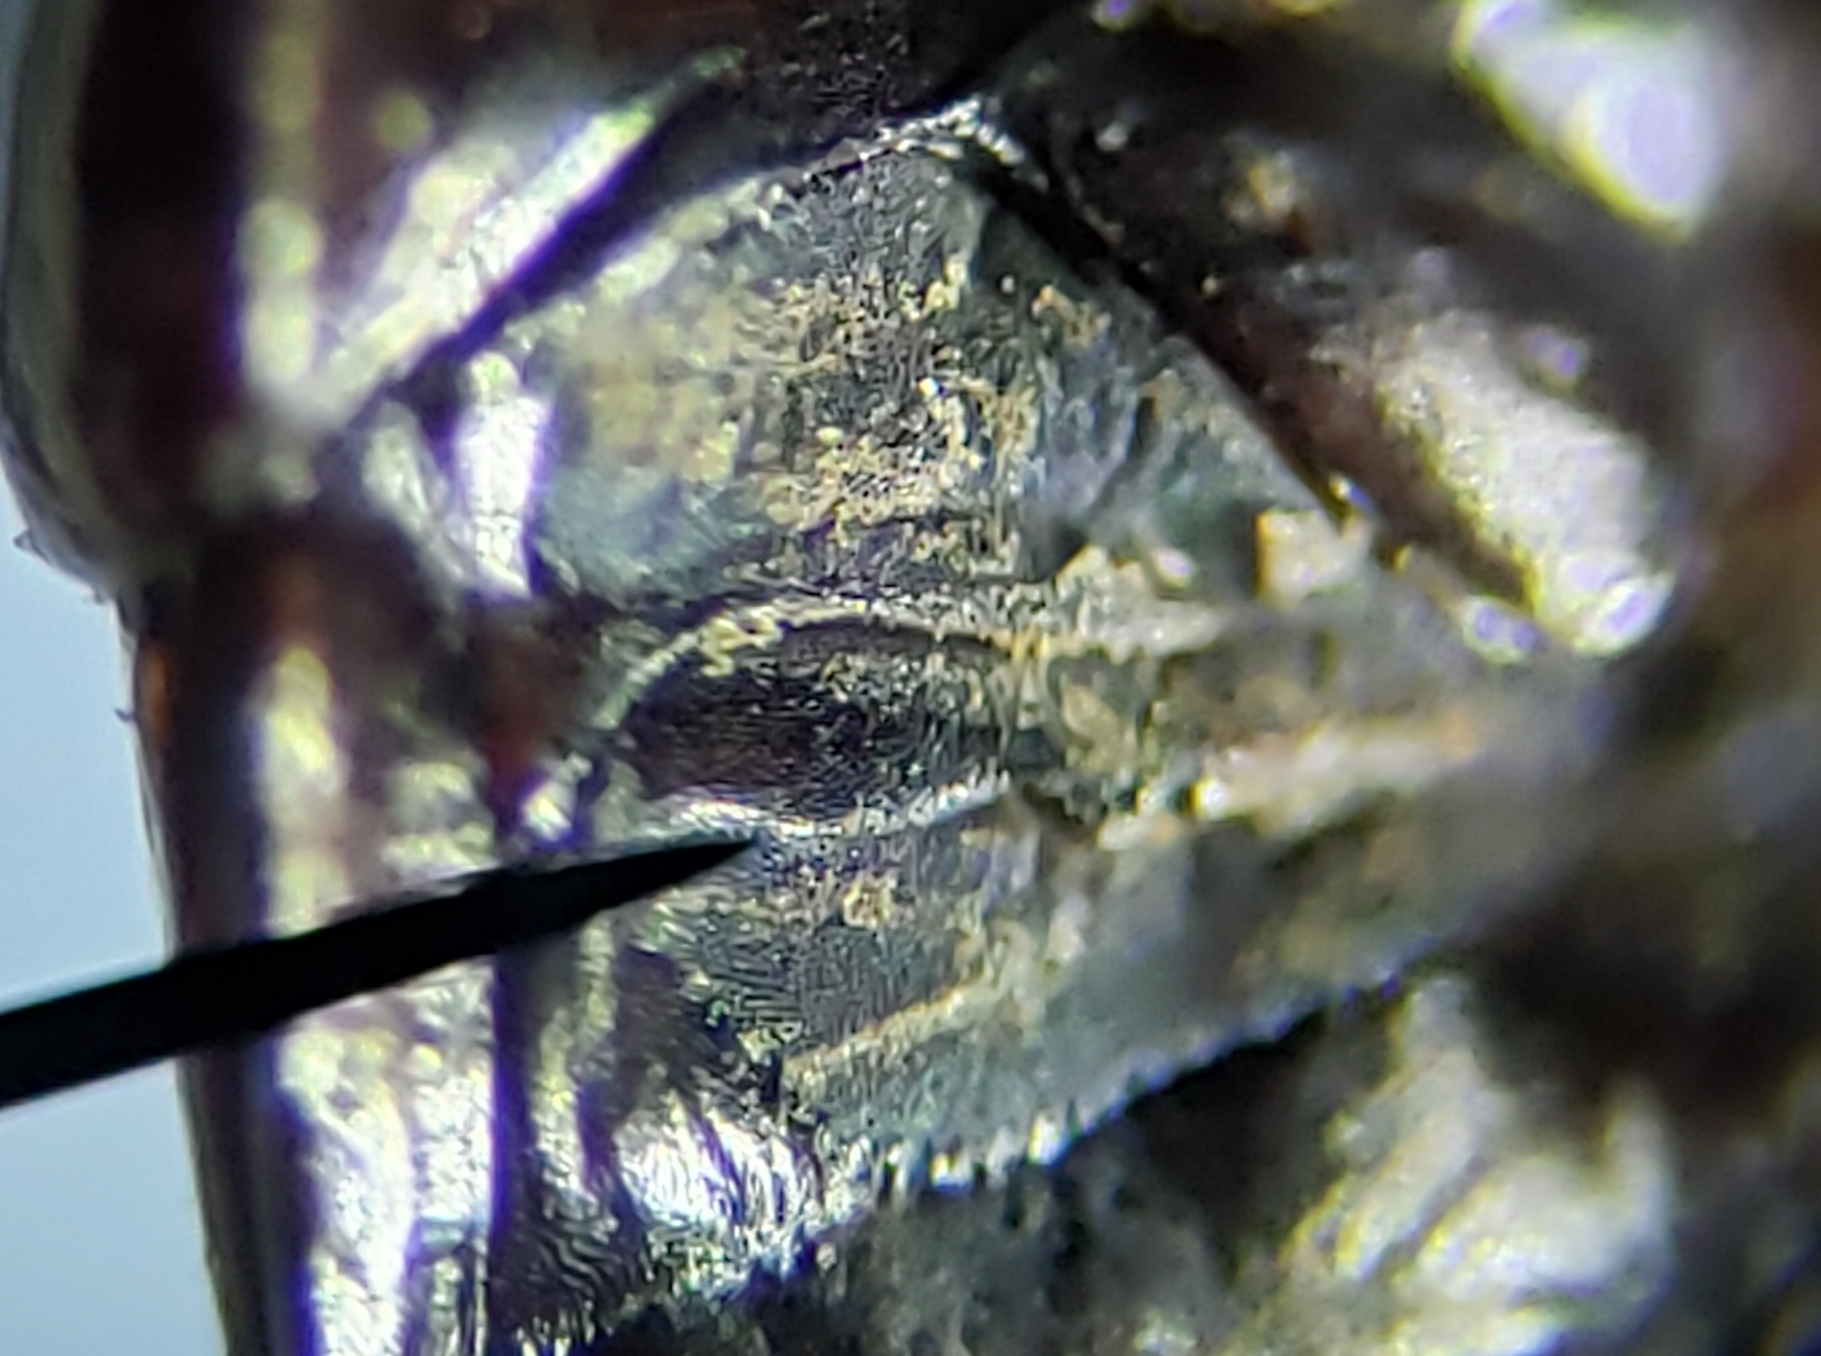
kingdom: Animalia
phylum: Arthropoda
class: Insecta
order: Hemiptera
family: Cydnidae
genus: Rhytidoporus
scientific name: Rhytidoporus indentatus
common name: Burrower bug
